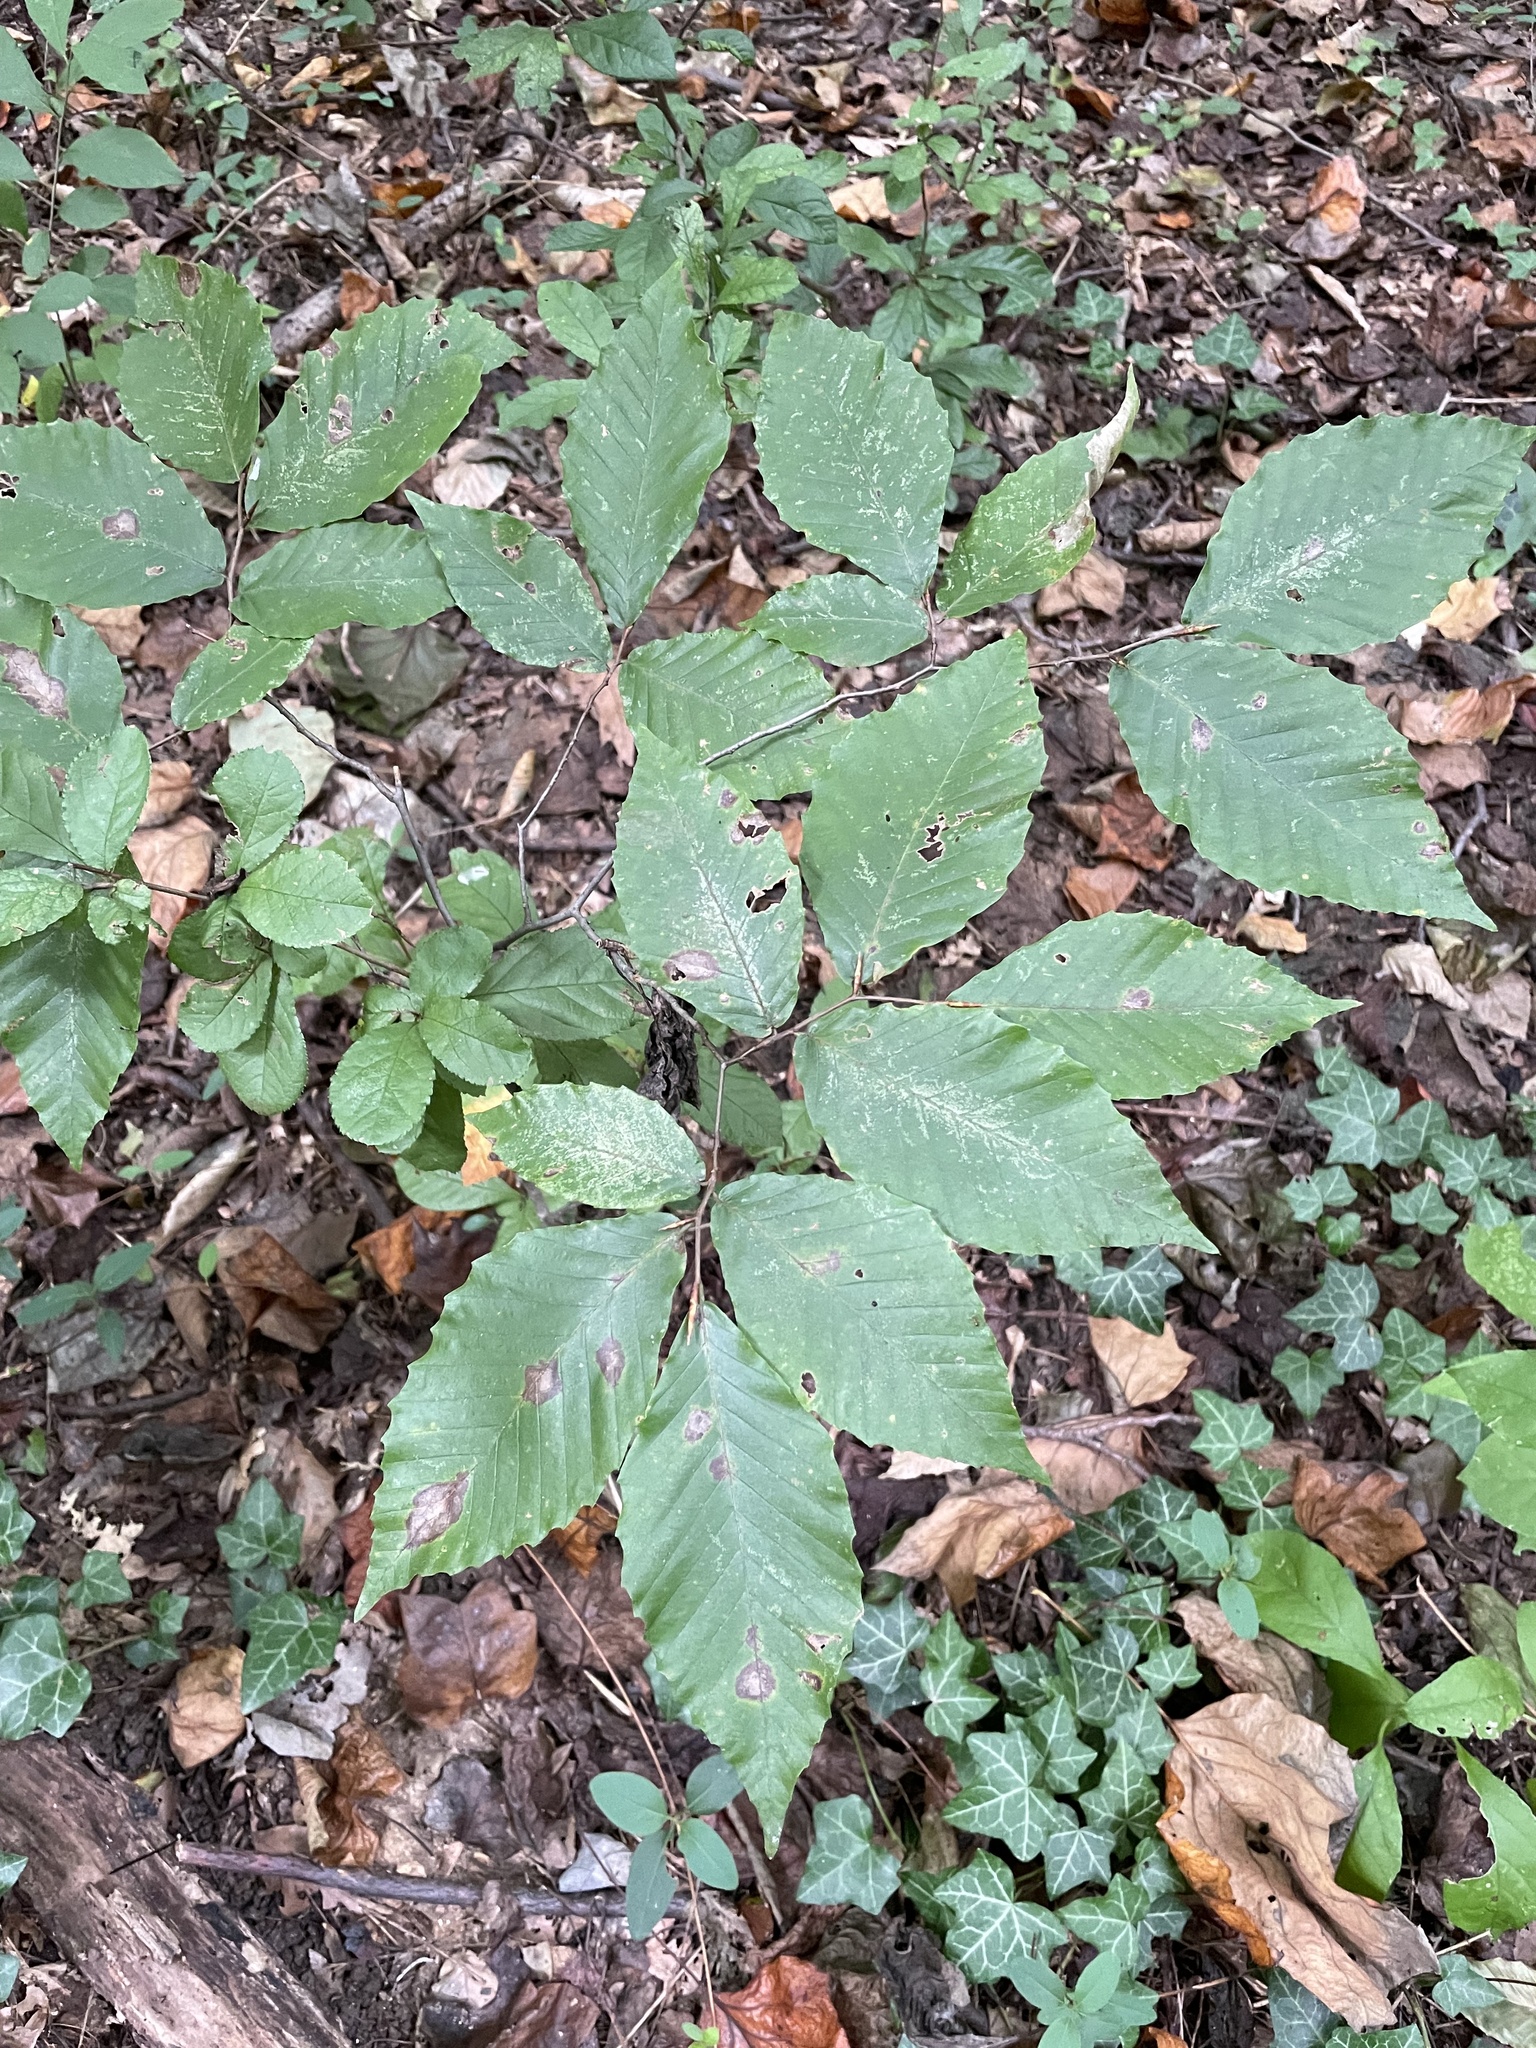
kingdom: Plantae
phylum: Tracheophyta
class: Magnoliopsida
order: Fagales
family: Fagaceae
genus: Fagus
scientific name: Fagus grandifolia
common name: American beech
